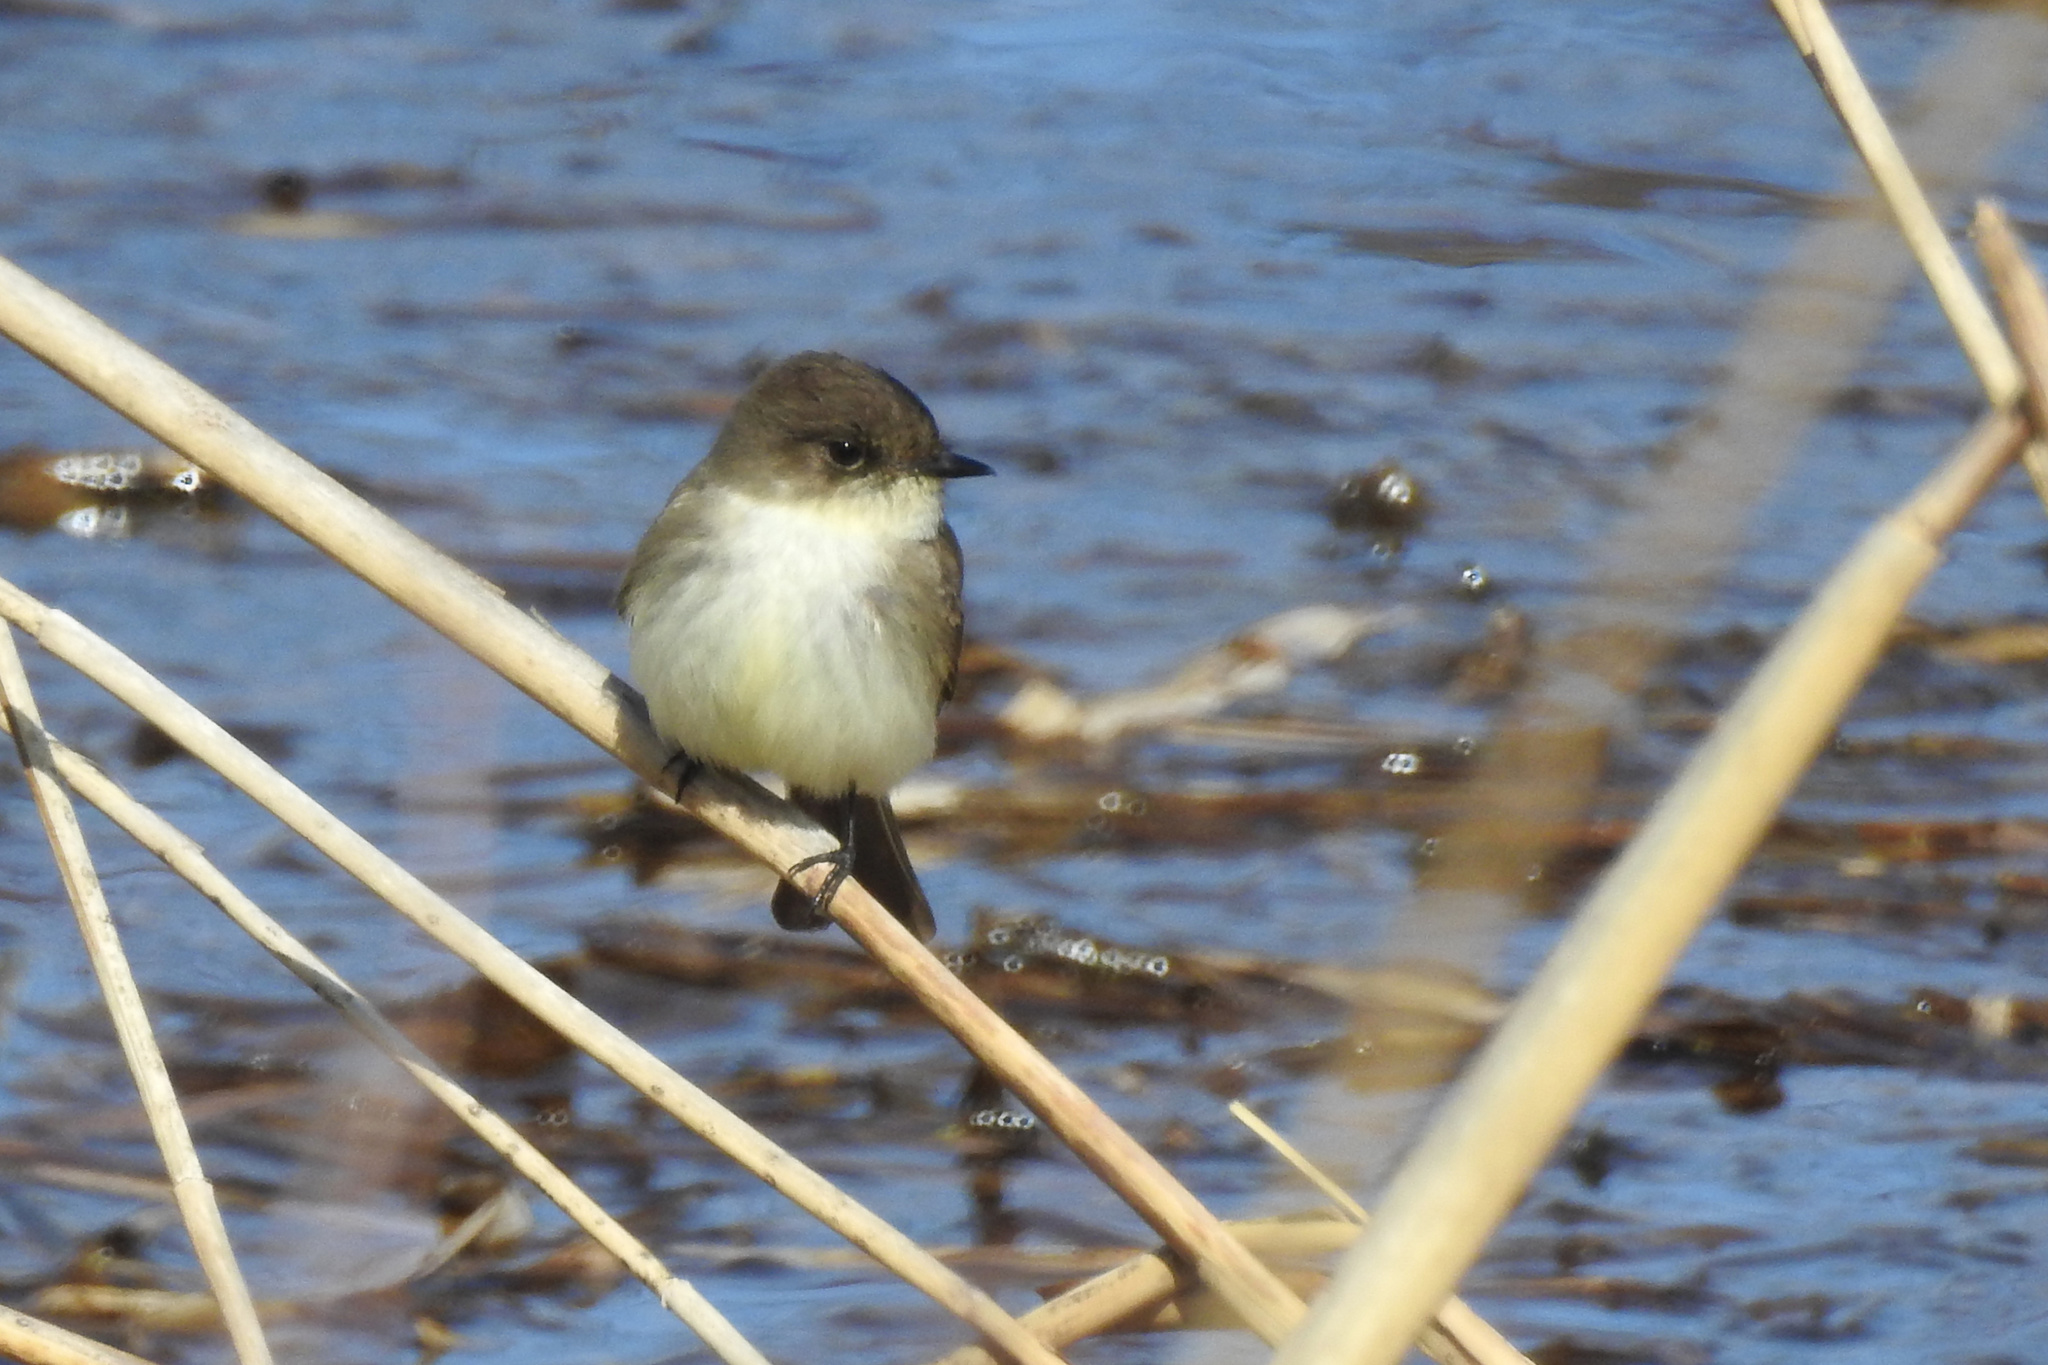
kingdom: Animalia
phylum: Chordata
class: Aves
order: Passeriformes
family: Tyrannidae
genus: Sayornis
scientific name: Sayornis phoebe
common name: Eastern phoebe
